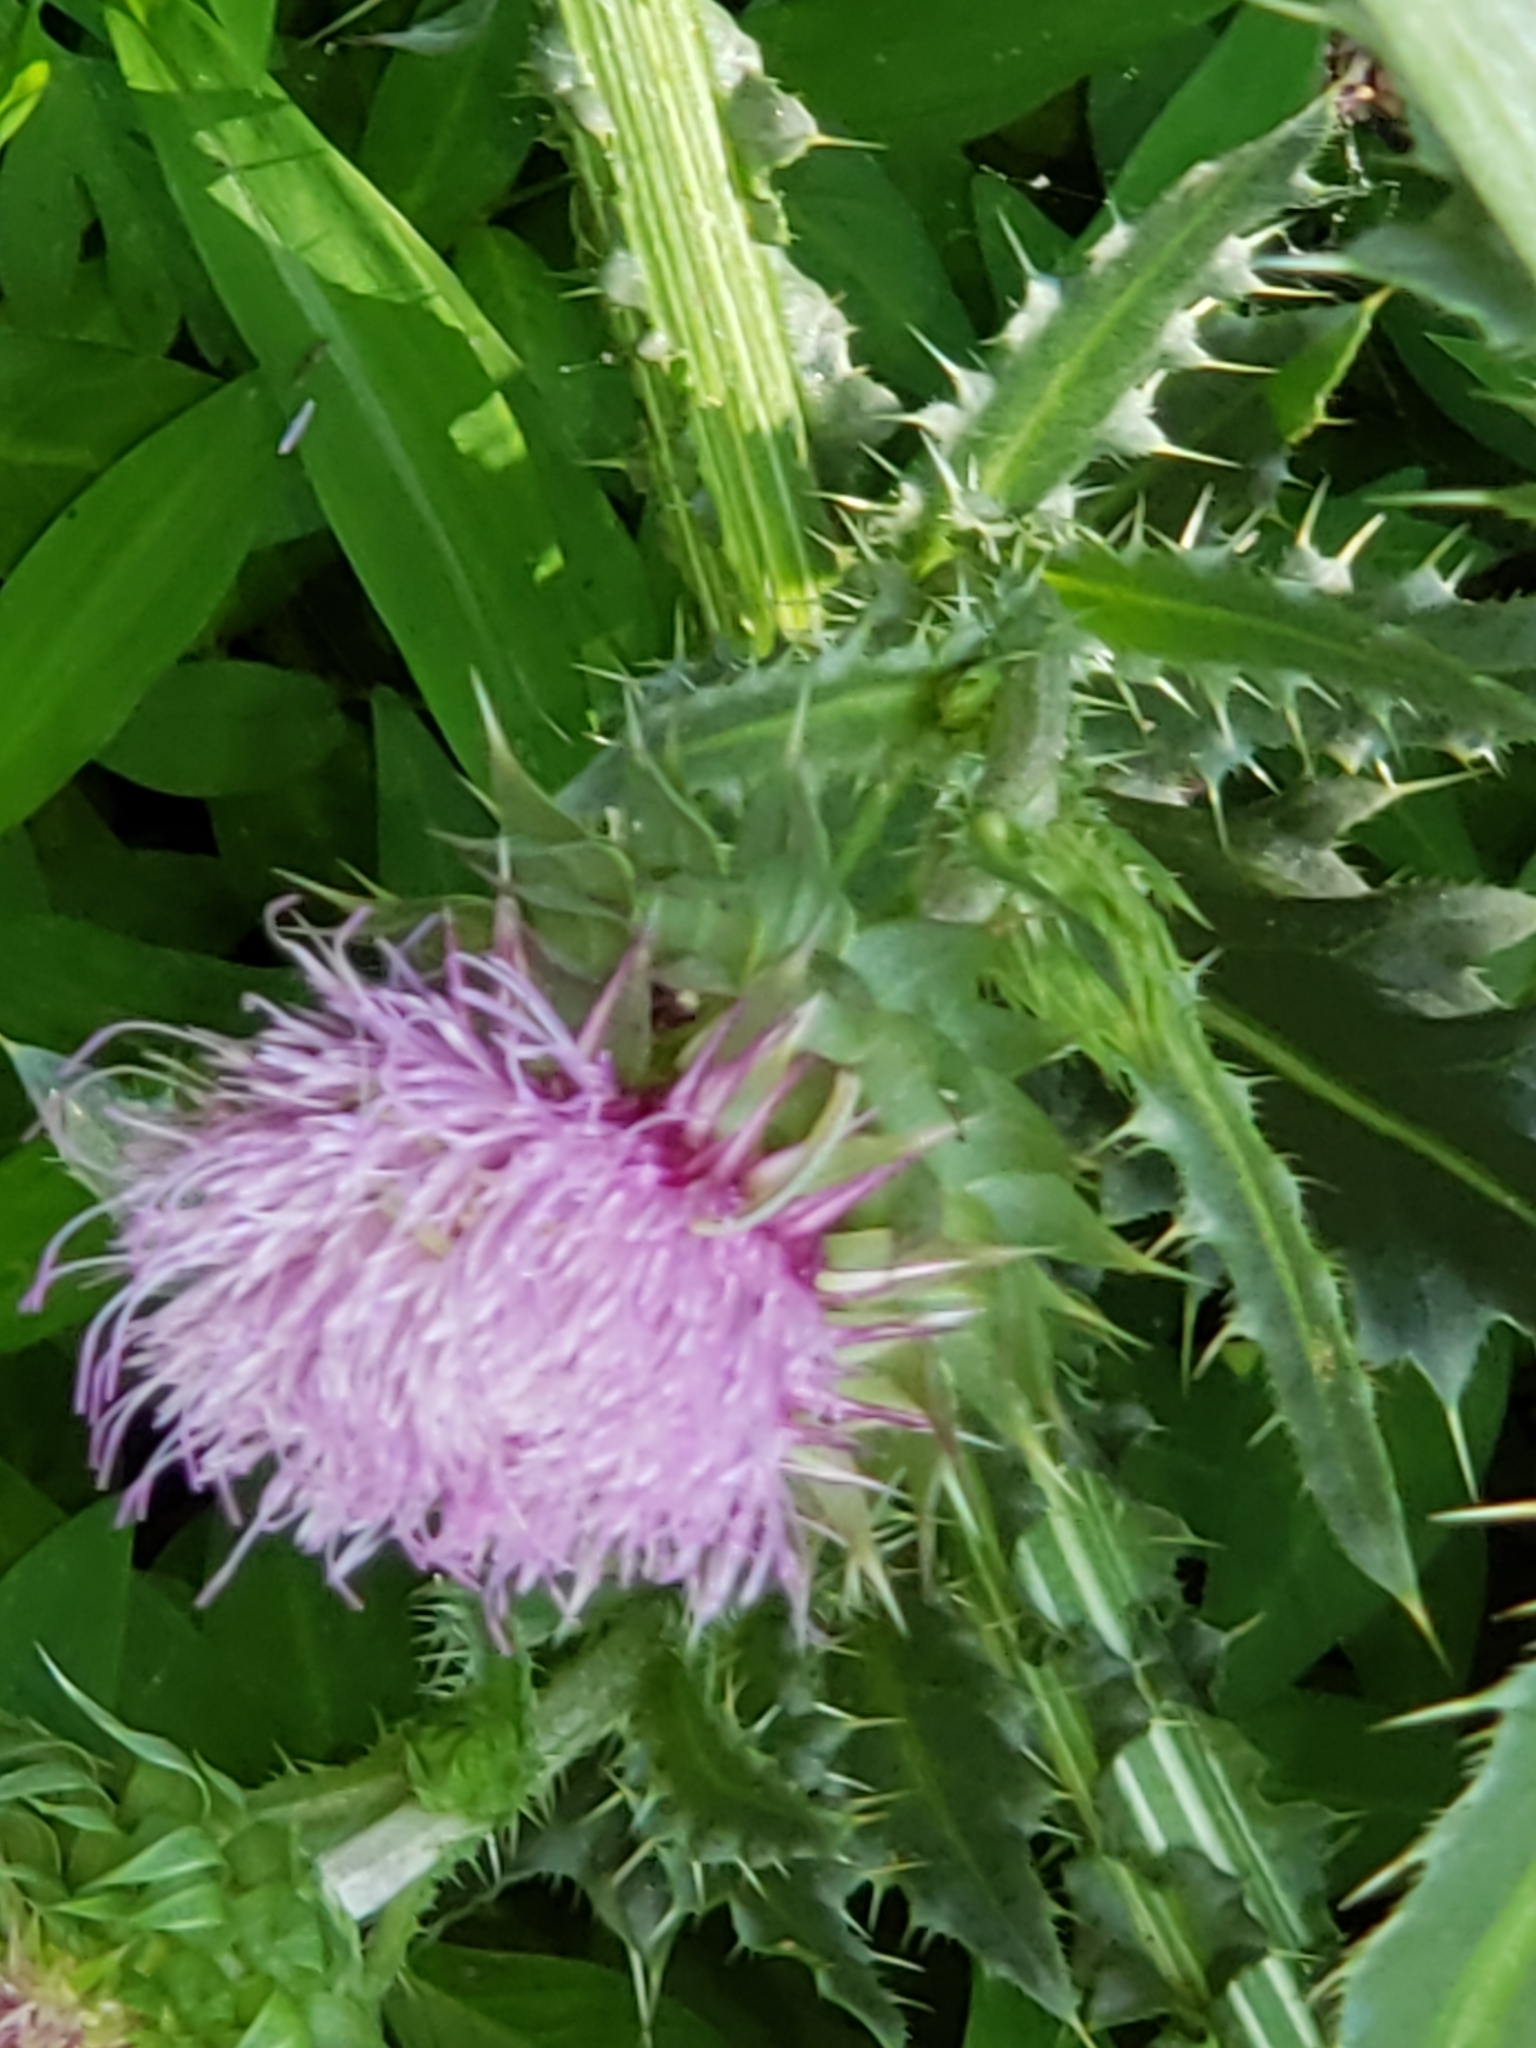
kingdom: Plantae
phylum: Tracheophyta
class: Magnoliopsida
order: Asterales
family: Asteraceae
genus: Carduus
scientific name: Carduus nutans
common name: Musk thistle
